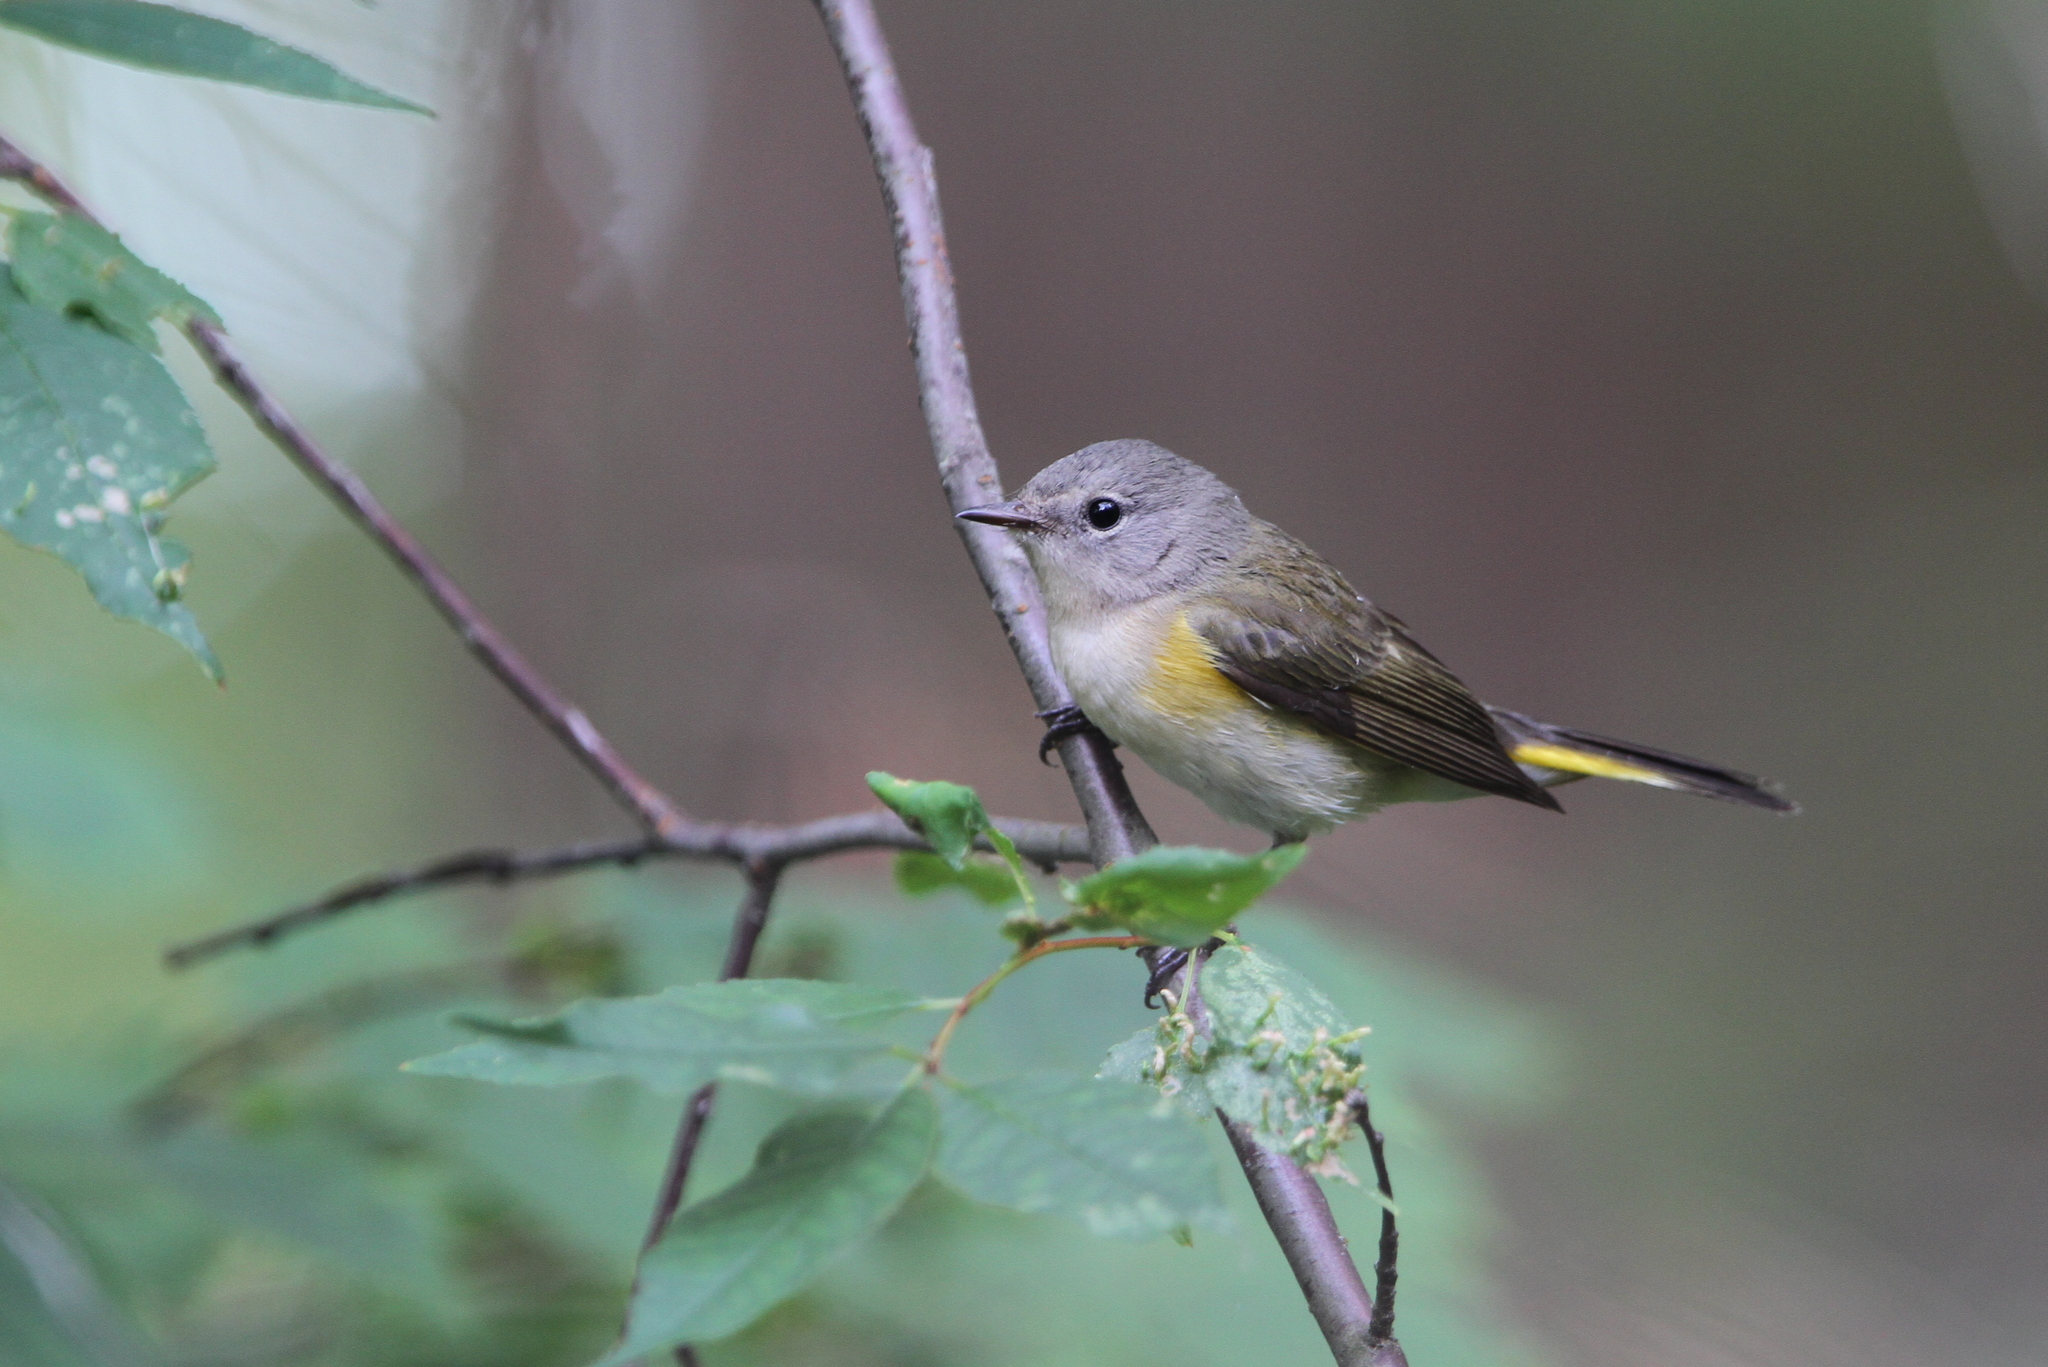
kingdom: Animalia
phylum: Chordata
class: Aves
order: Passeriformes
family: Parulidae
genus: Setophaga
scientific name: Setophaga ruticilla
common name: American redstart
